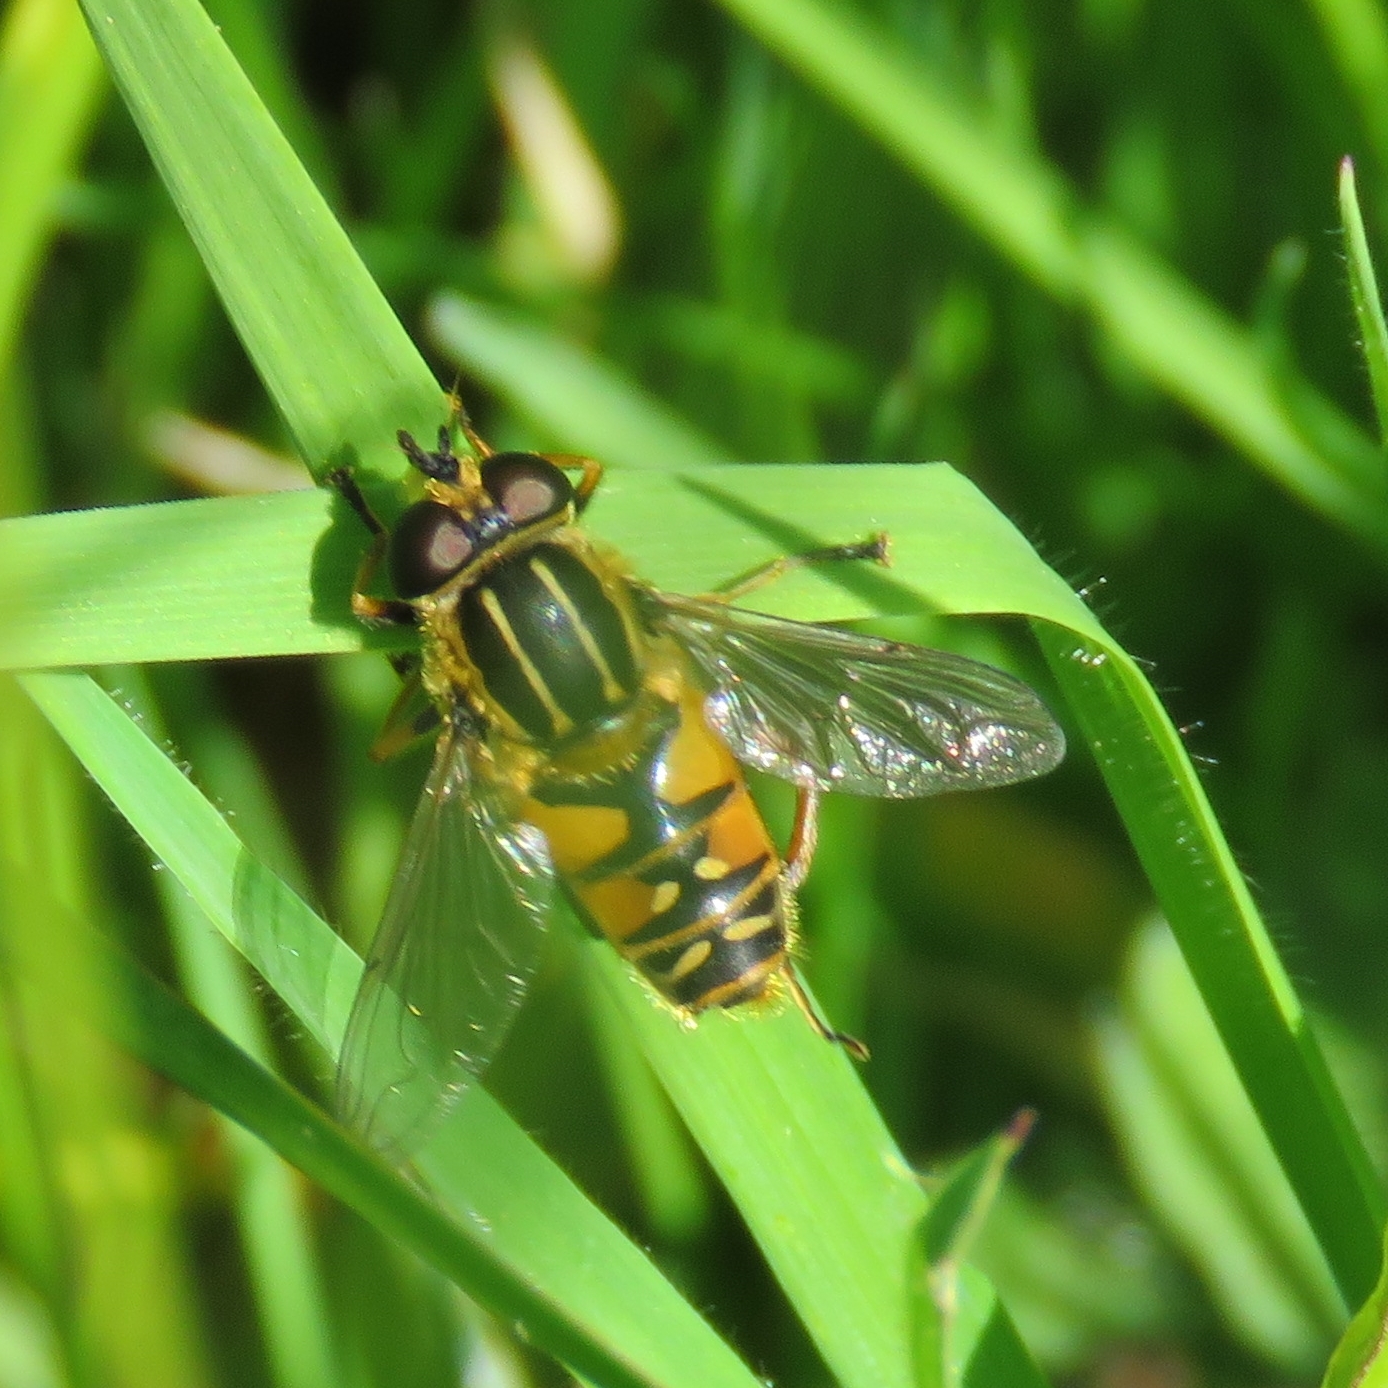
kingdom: Animalia
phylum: Arthropoda
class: Insecta
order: Diptera
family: Syrphidae
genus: Helophilus
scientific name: Helophilus pendulus
